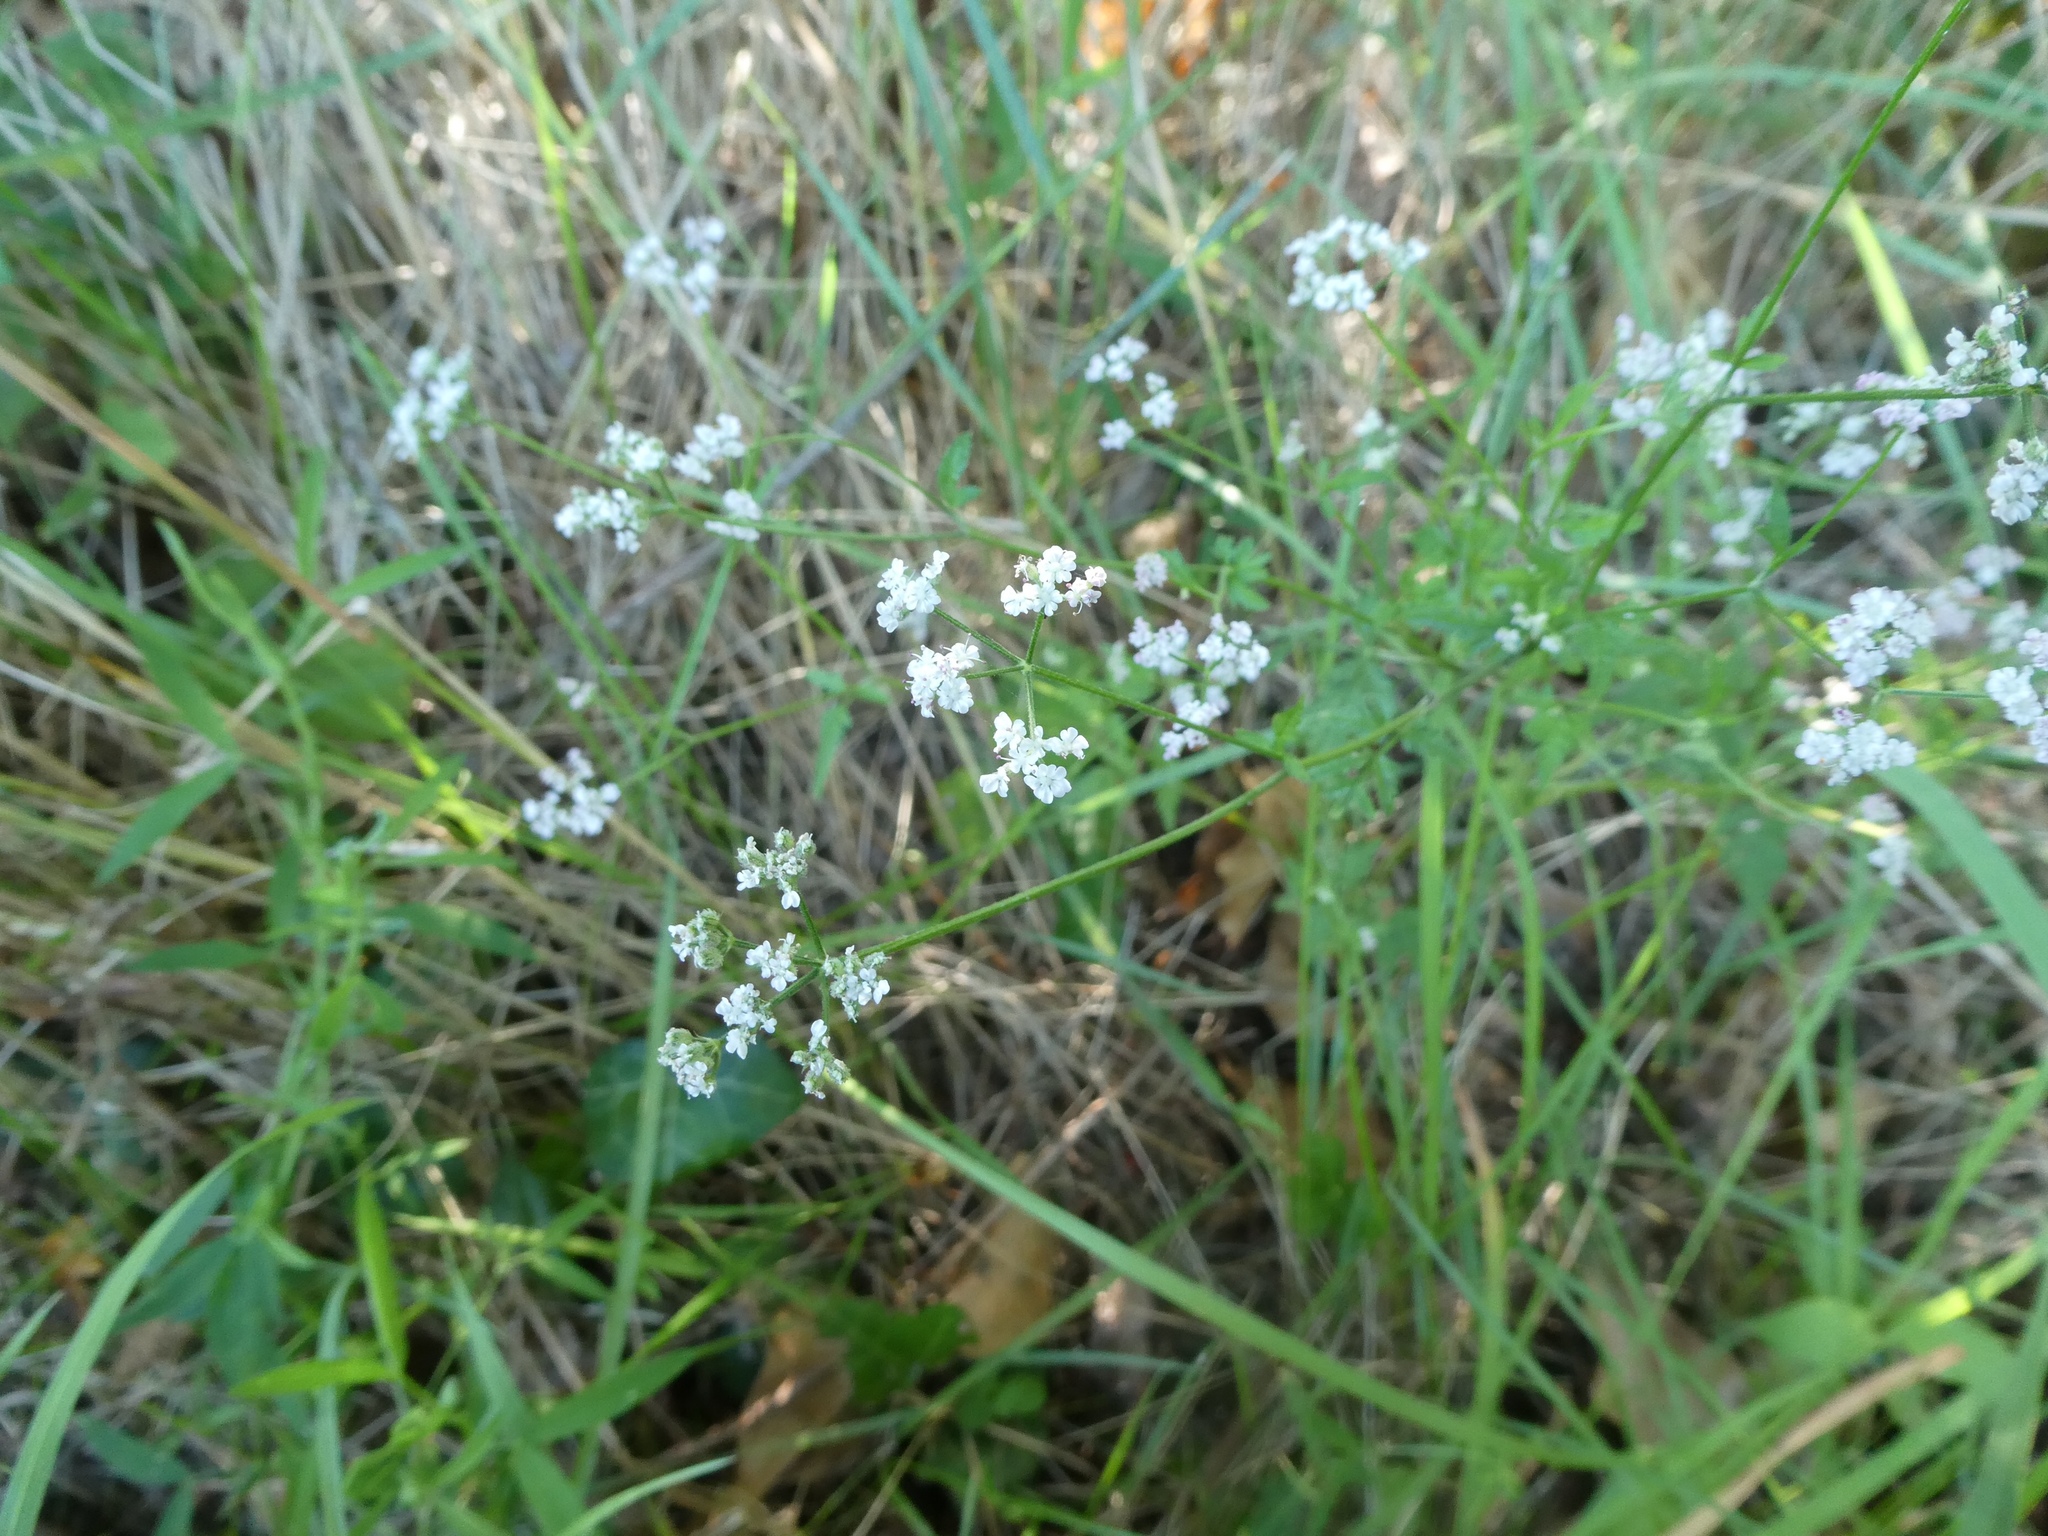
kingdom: Plantae
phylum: Tracheophyta
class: Magnoliopsida
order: Apiales
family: Apiaceae
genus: Torilis
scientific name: Torilis japonica
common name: Upright hedge-parsley
